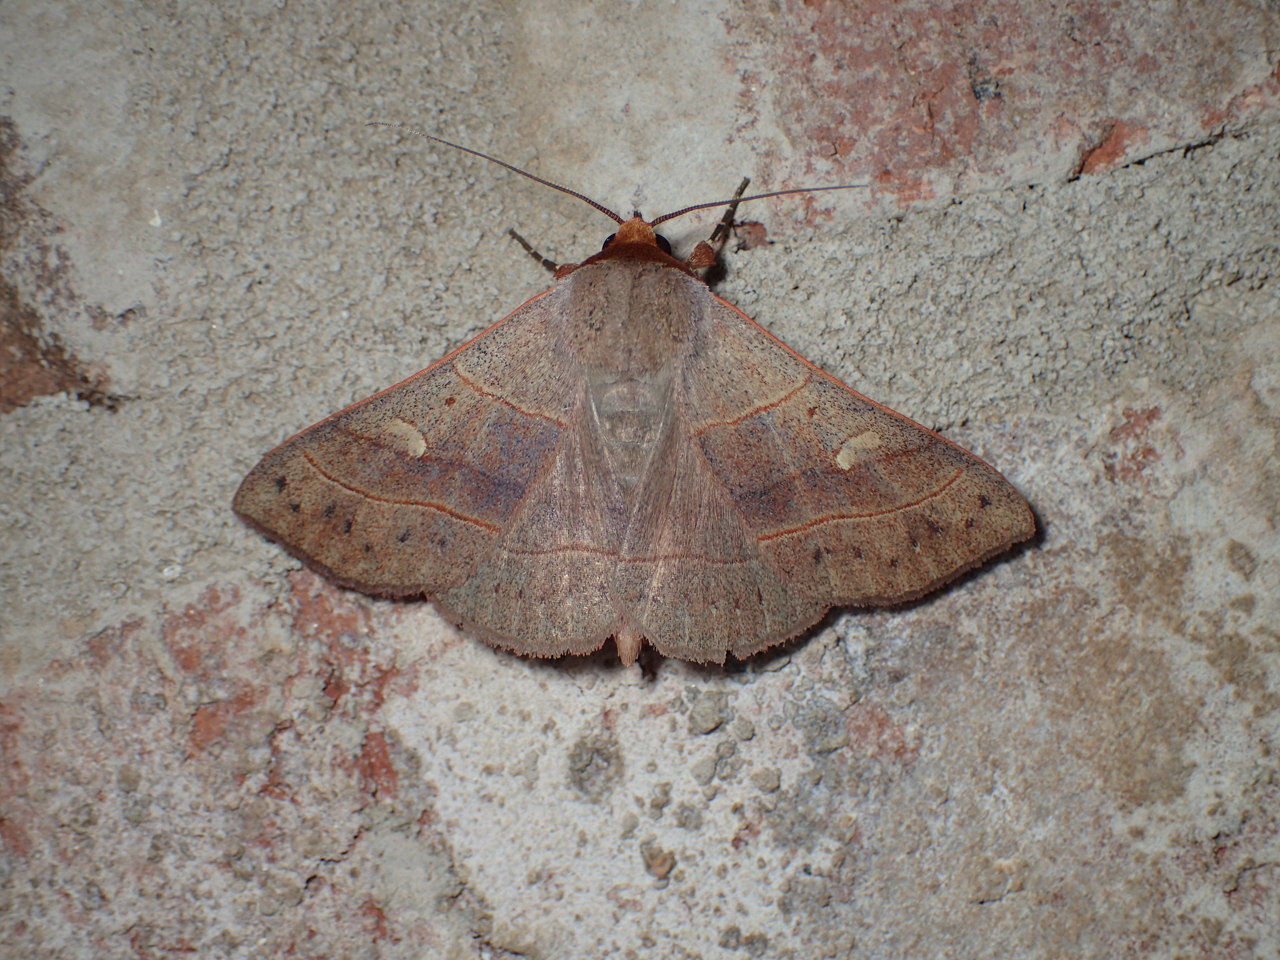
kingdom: Animalia
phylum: Arthropoda
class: Insecta
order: Lepidoptera
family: Erebidae
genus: Panopoda
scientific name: Panopoda rufimargo
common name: Red-lined panopoda moth
